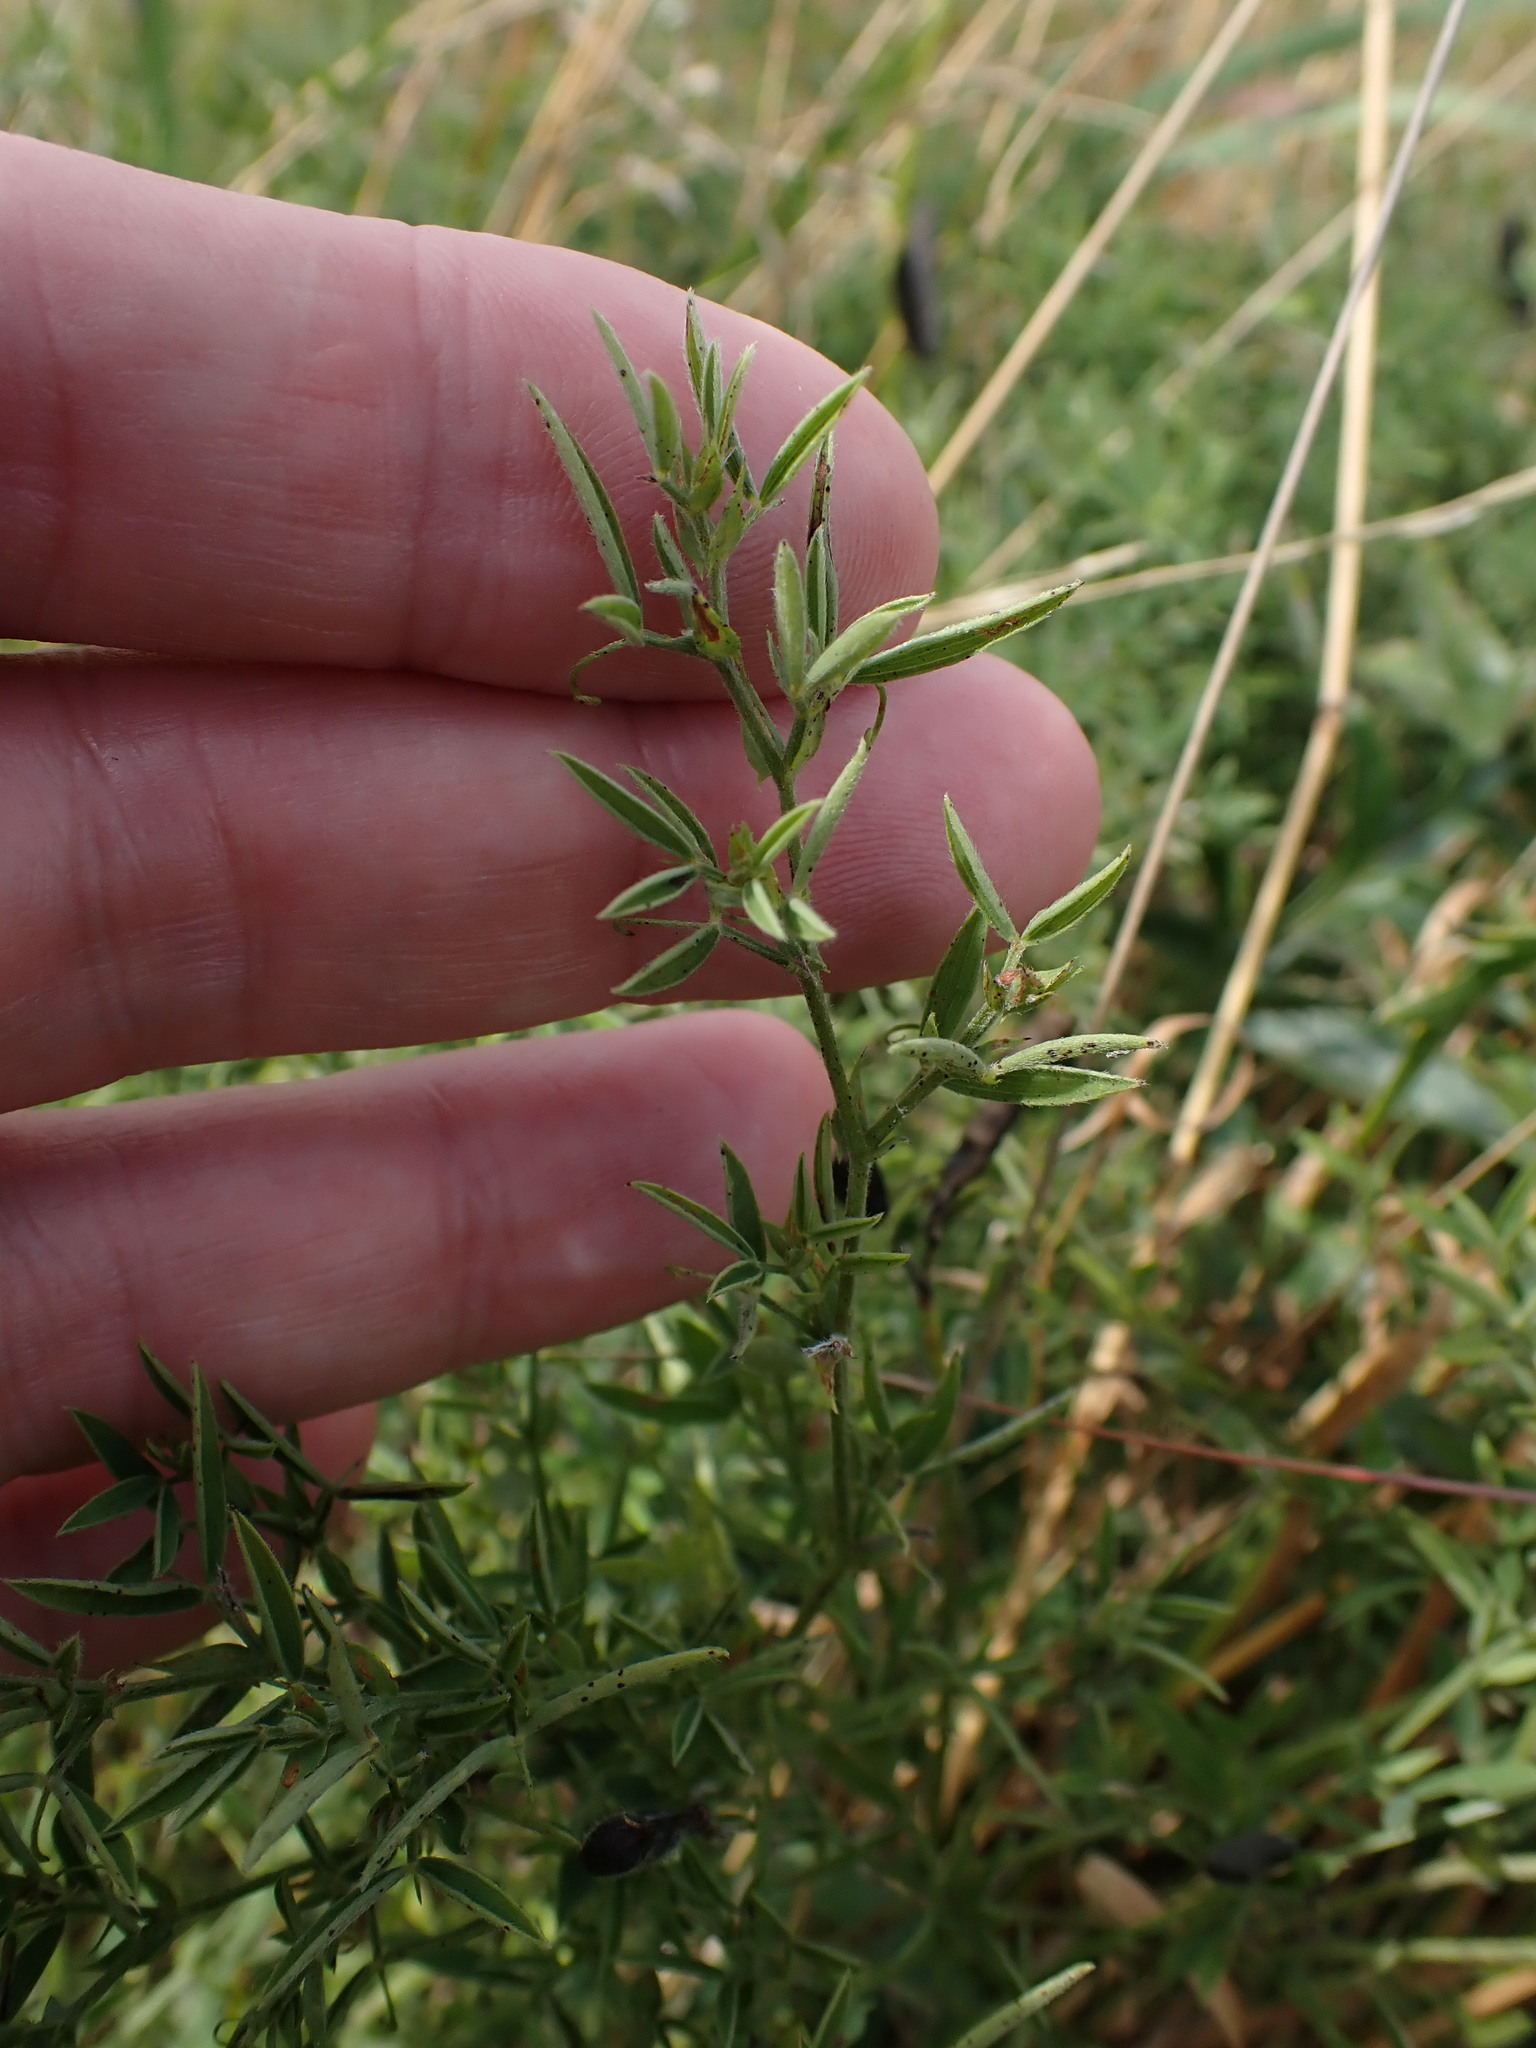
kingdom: Plantae
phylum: Tracheophyta
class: Magnoliopsida
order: Fabales
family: Fabaceae
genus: Lathyrus
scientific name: Lathyrus pratensis
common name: Meadow vetchling
